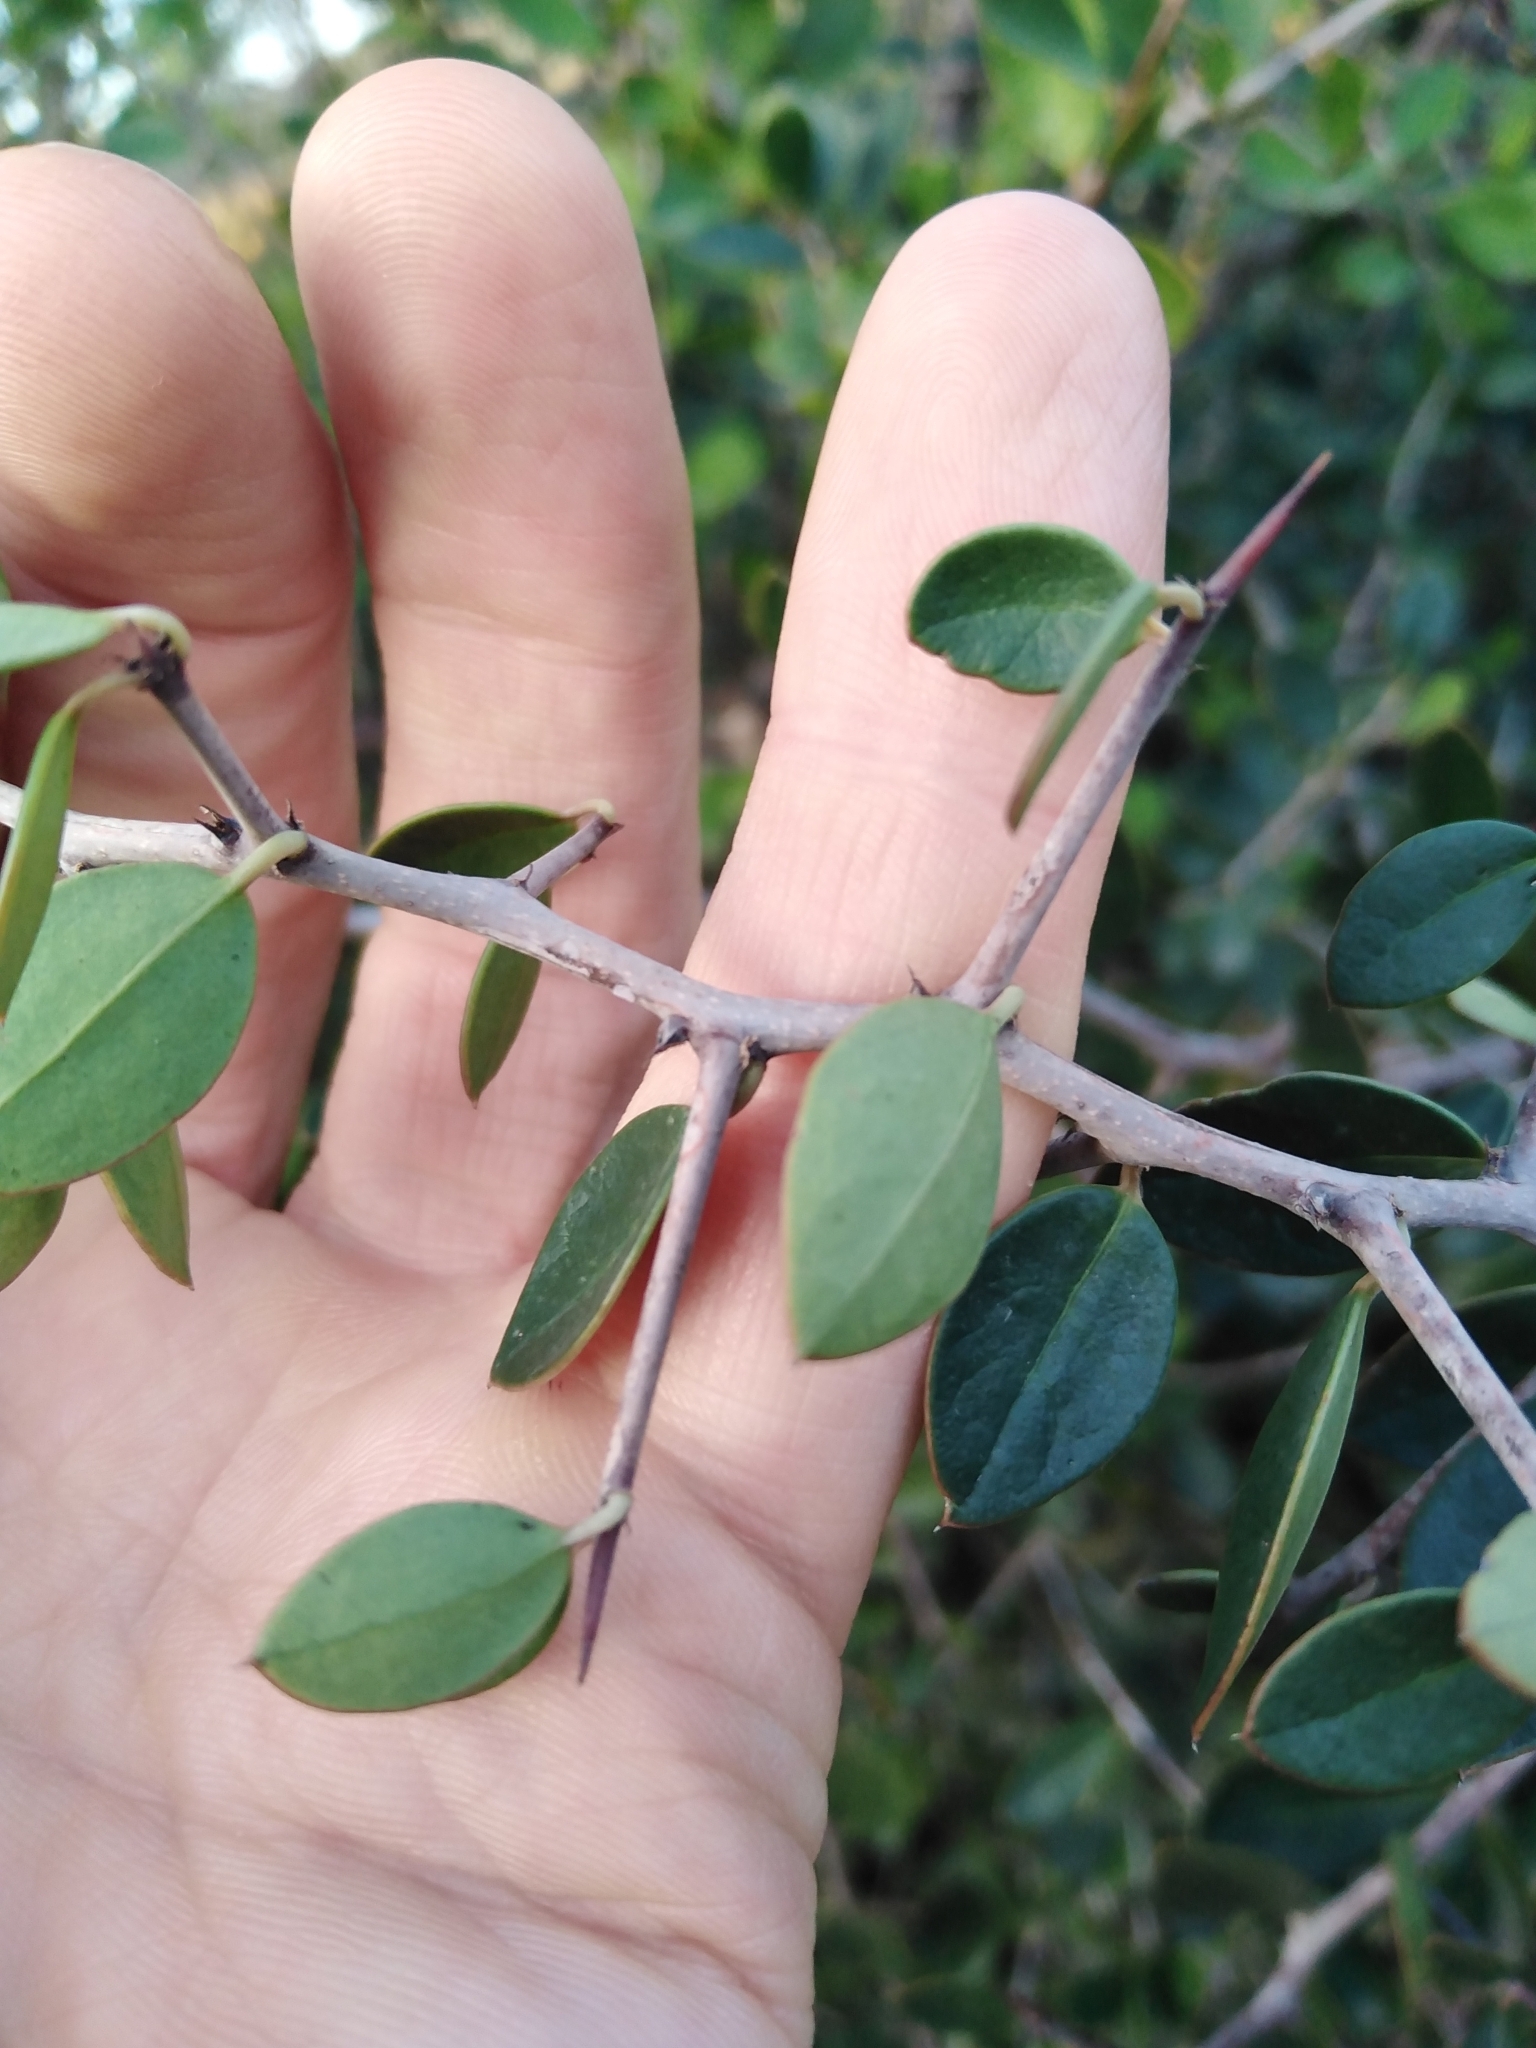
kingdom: Plantae
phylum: Tracheophyta
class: Magnoliopsida
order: Celastrales
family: Celastraceae
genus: Putterlickia
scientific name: Putterlickia pyracantha
